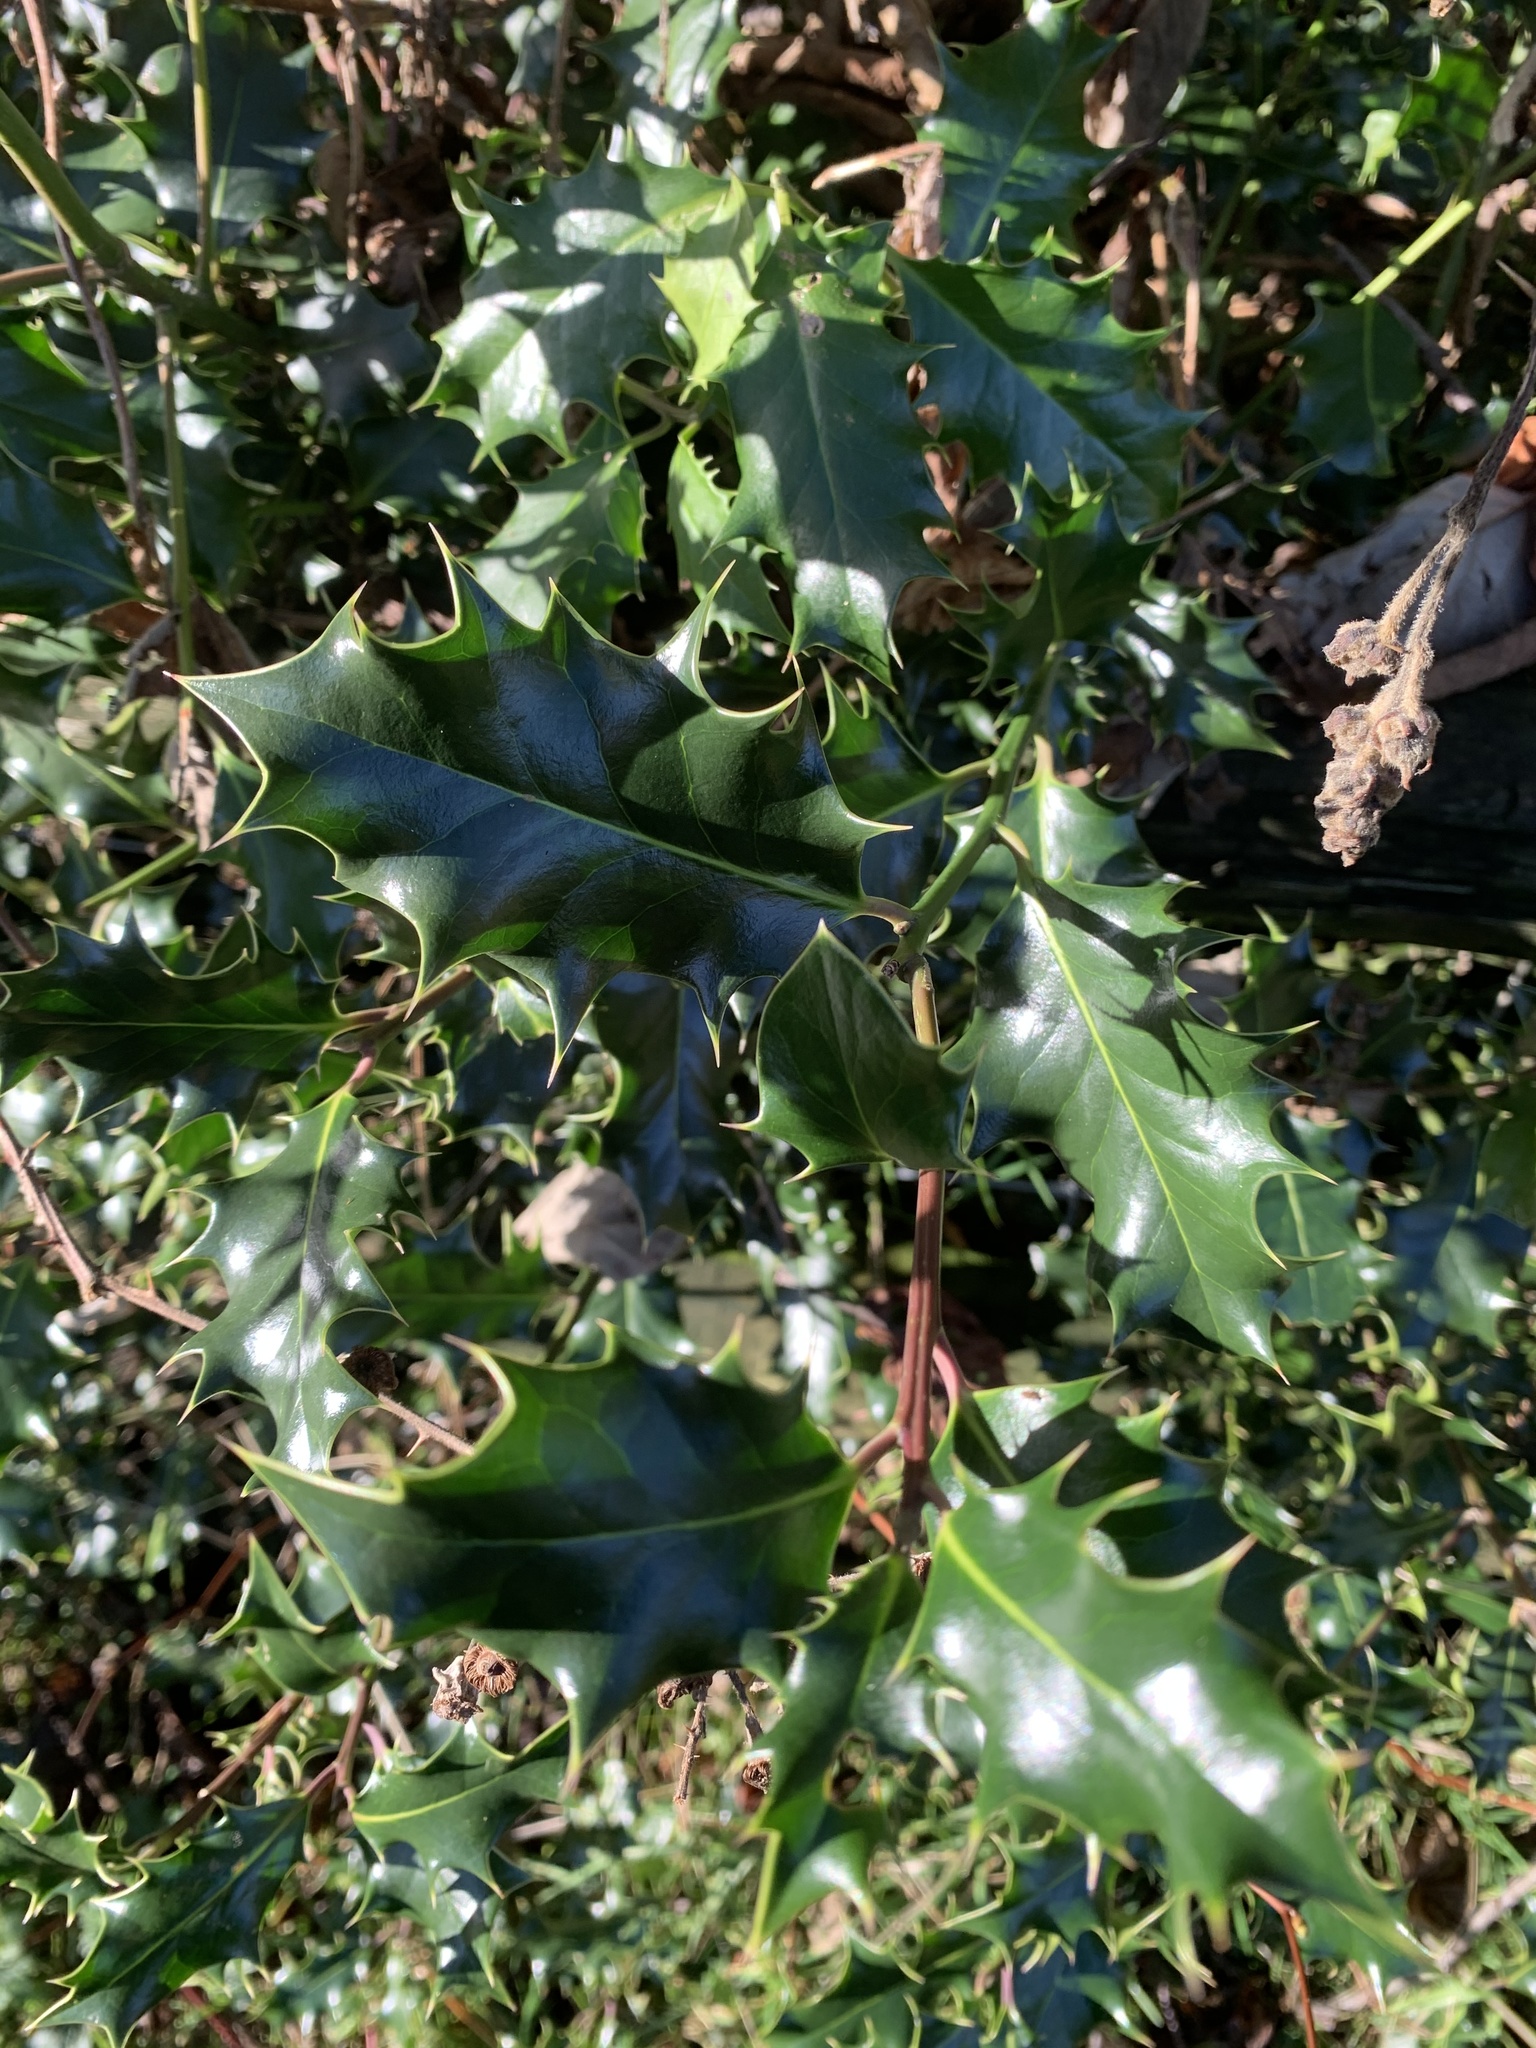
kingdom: Plantae
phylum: Tracheophyta
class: Magnoliopsida
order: Aquifoliales
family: Aquifoliaceae
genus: Ilex
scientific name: Ilex aquifolium
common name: English holly
